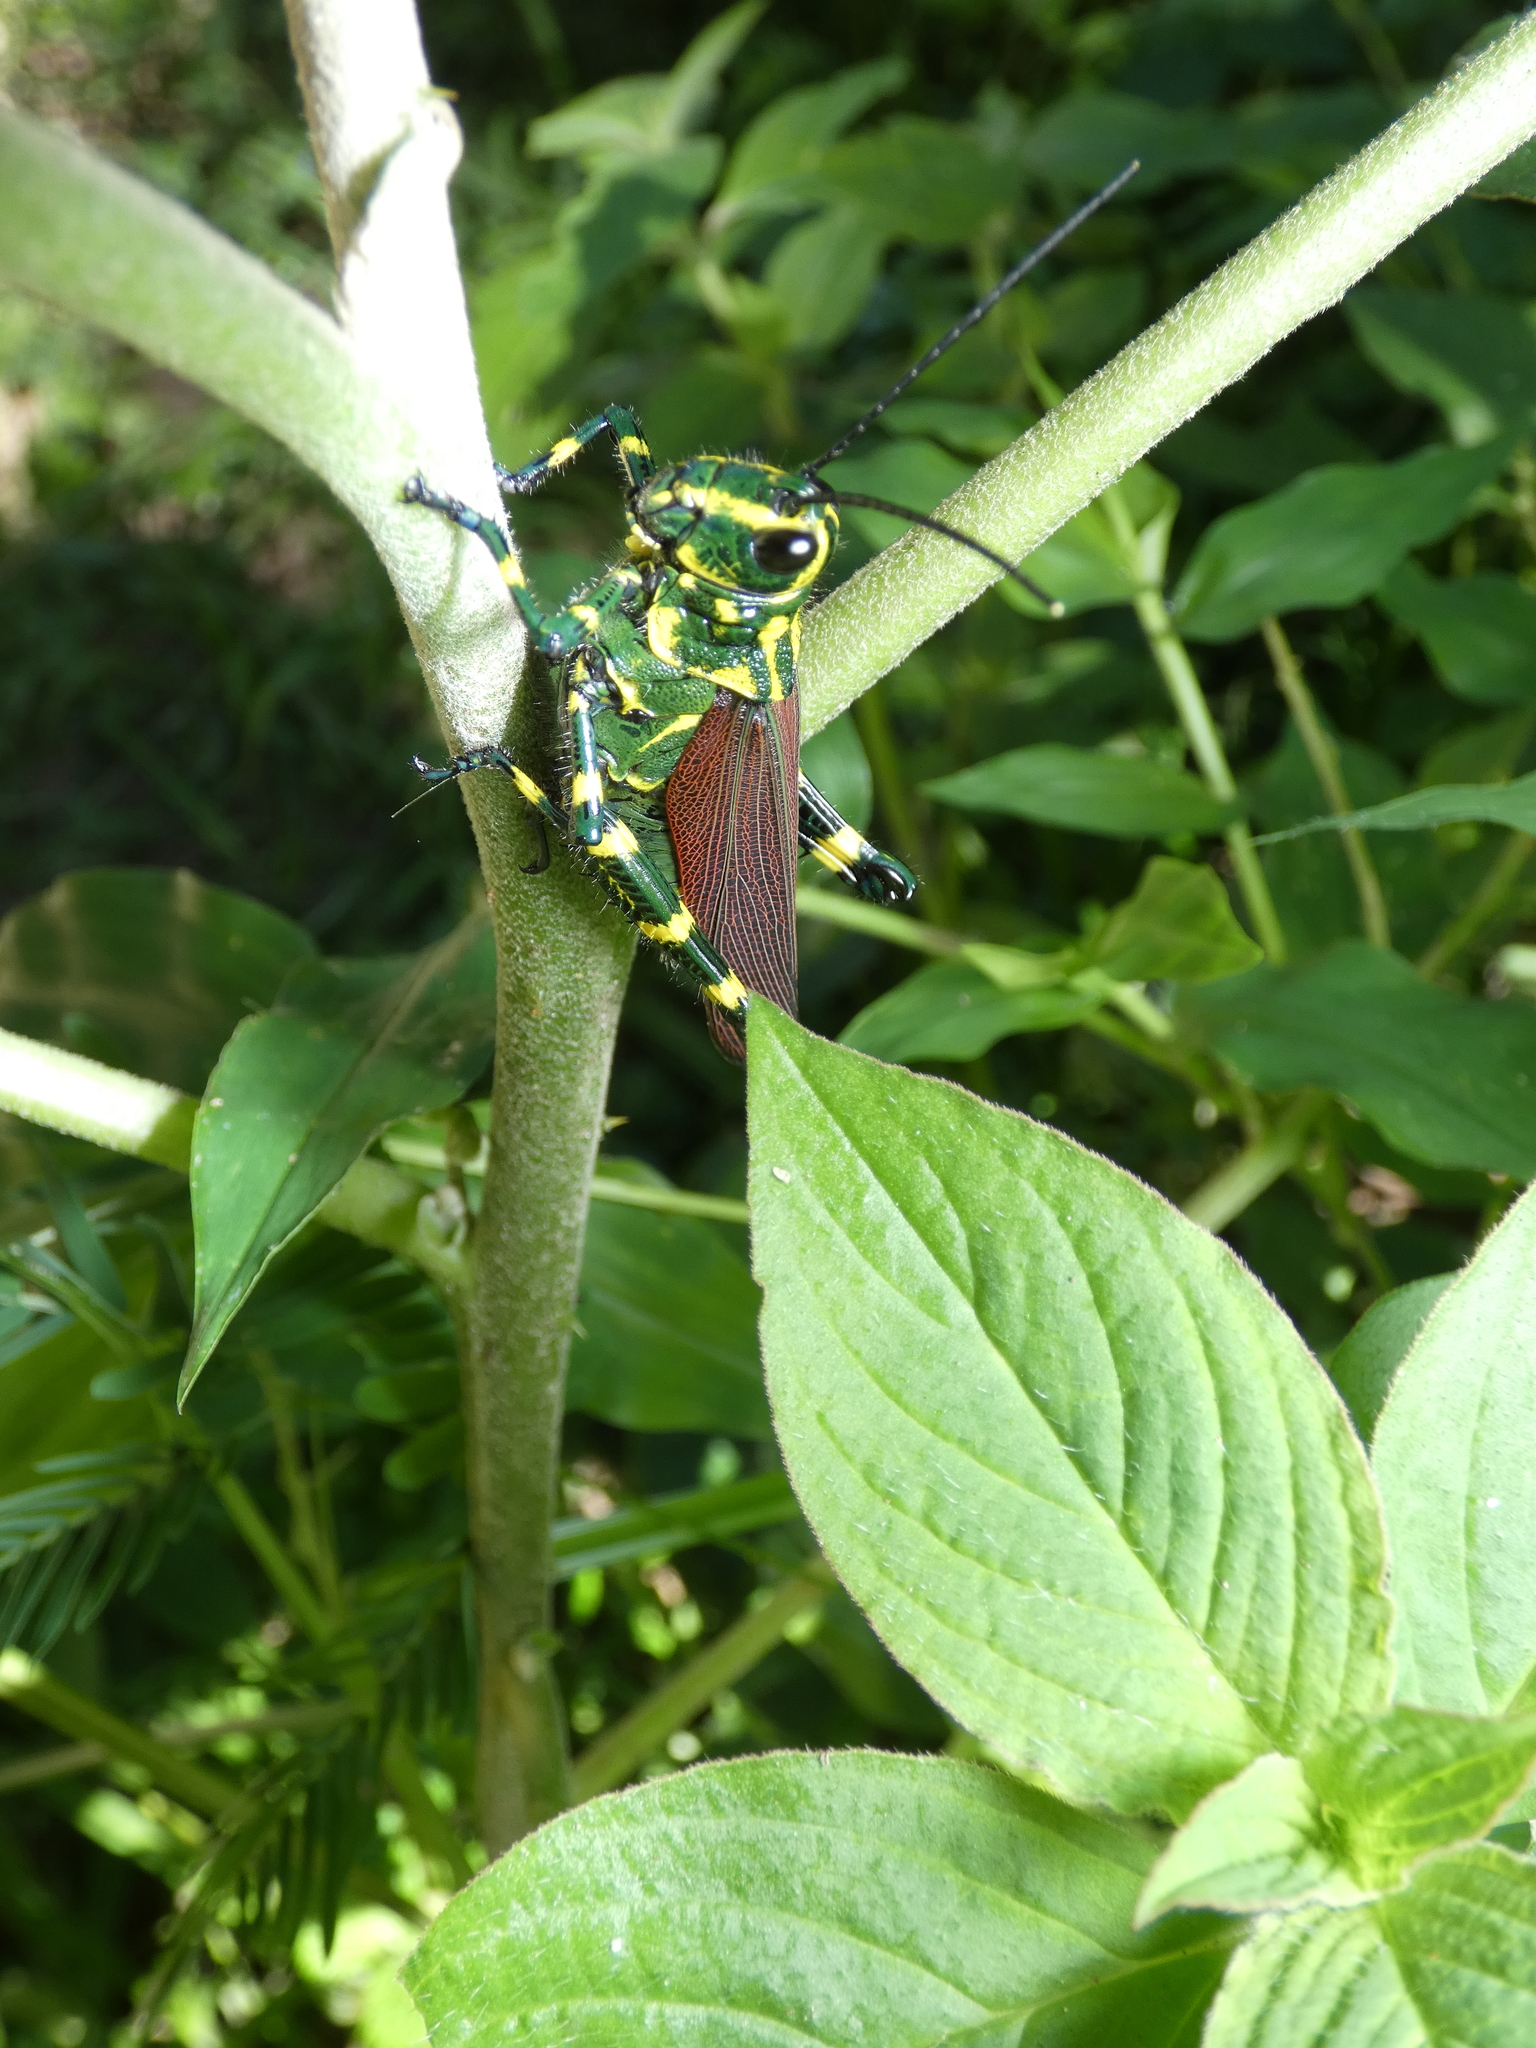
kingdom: Animalia
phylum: Arthropoda
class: Insecta
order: Orthoptera
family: Romaleidae
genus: Chromacris
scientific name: Chromacris speciosa
